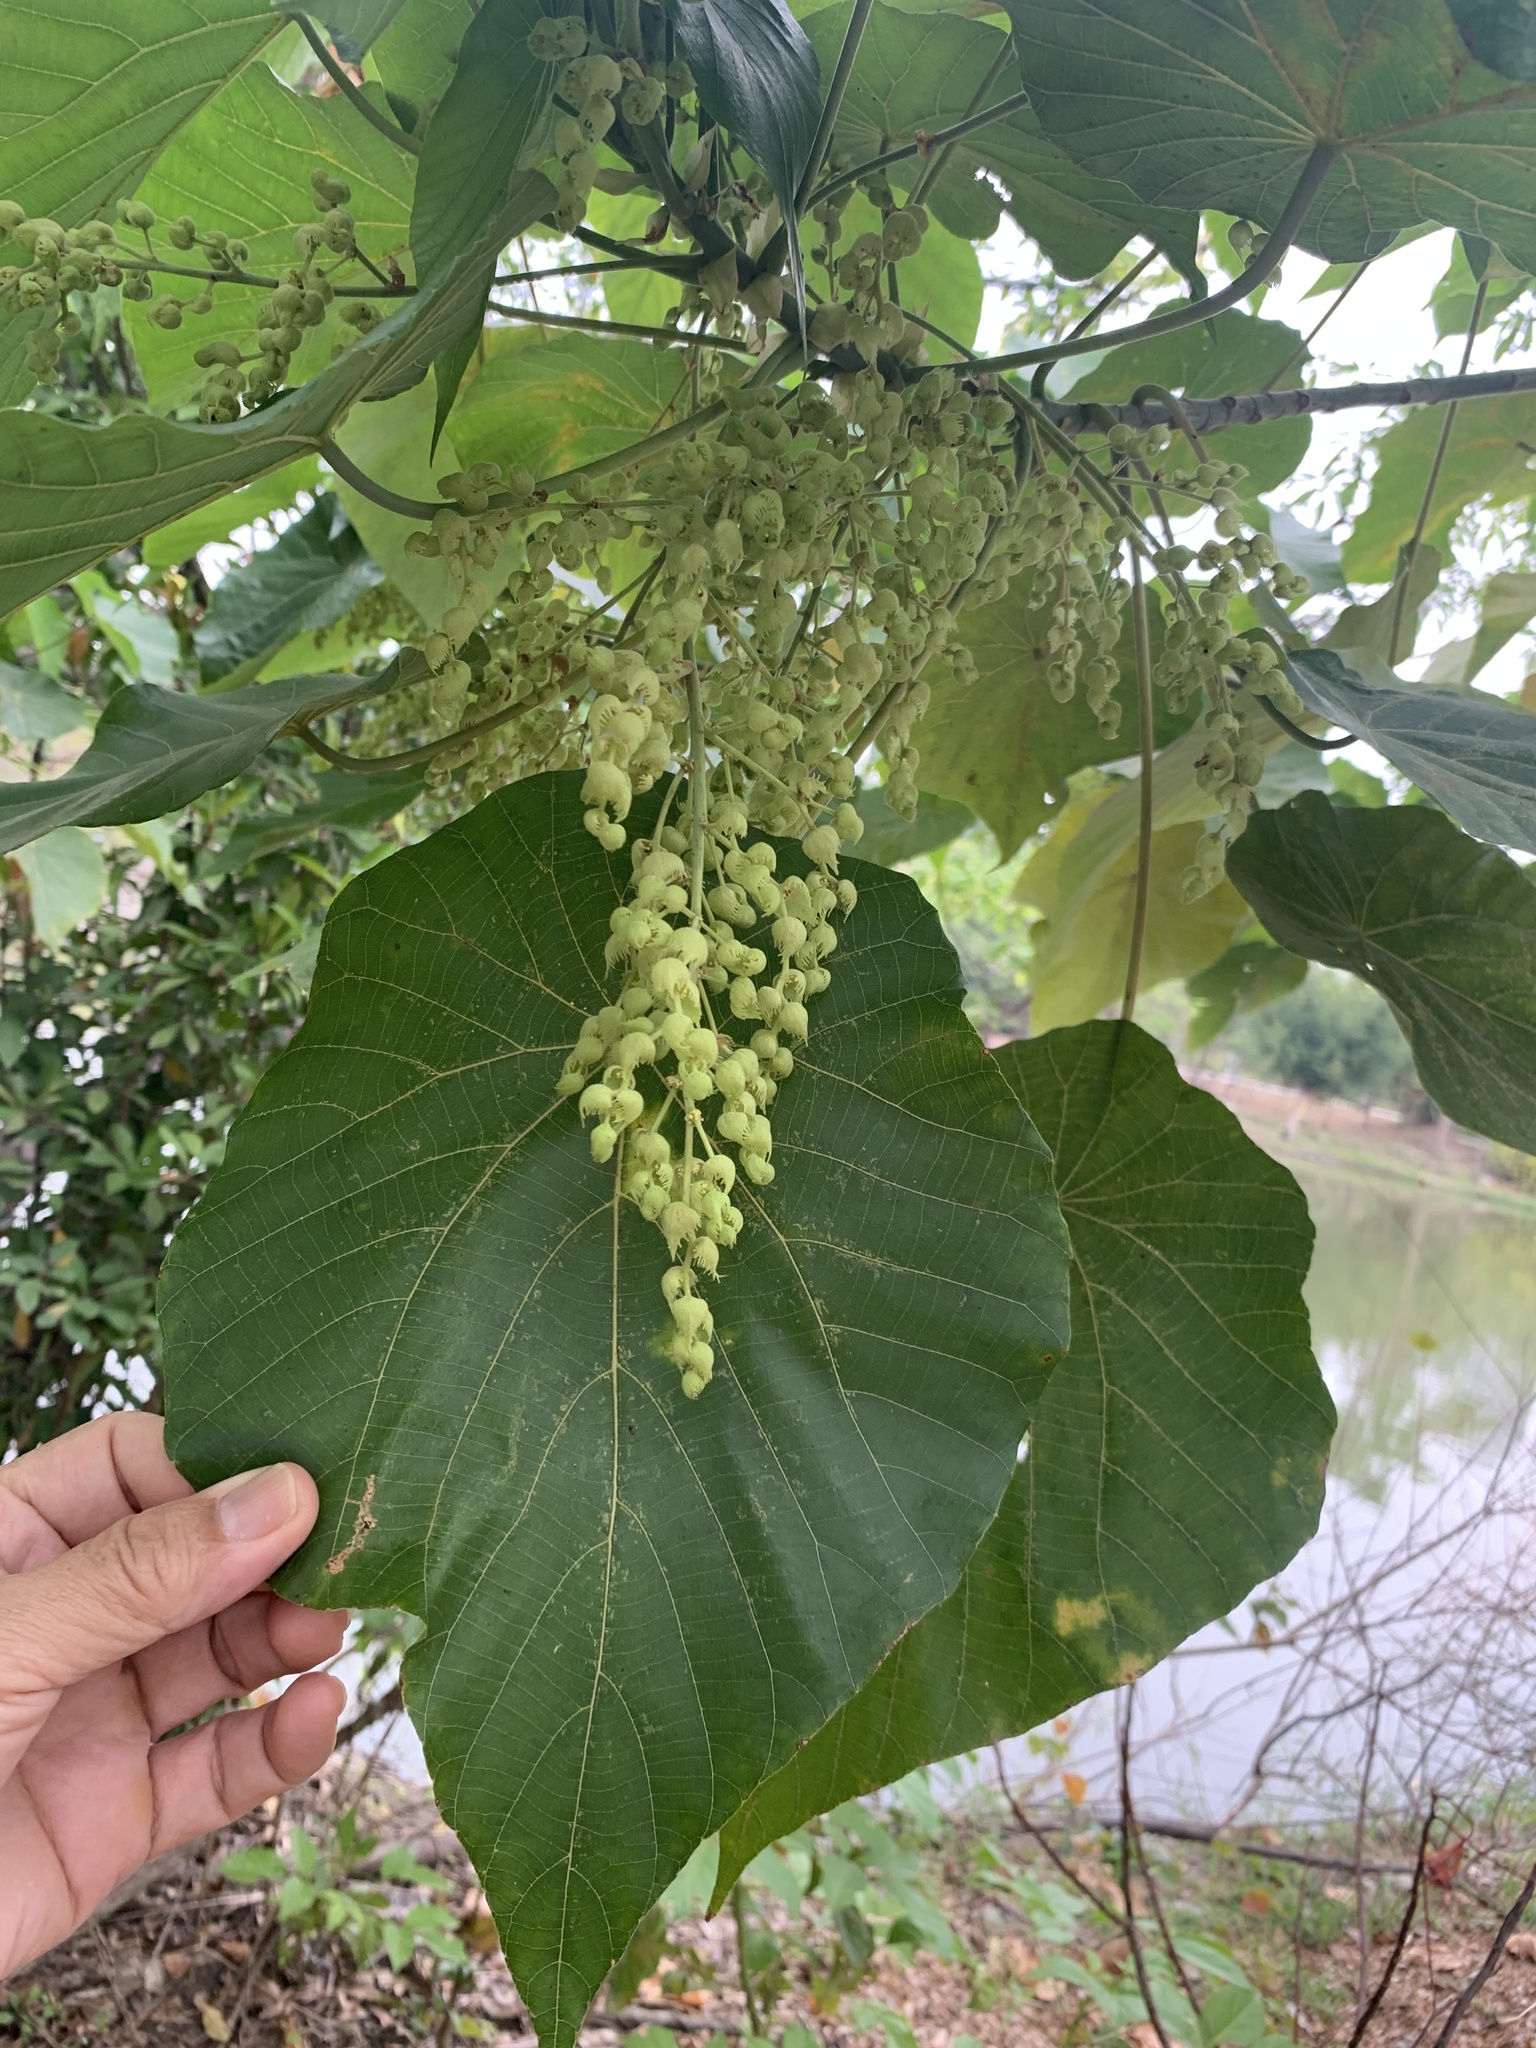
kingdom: Plantae
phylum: Tracheophyta
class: Magnoliopsida
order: Malpighiales
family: Euphorbiaceae
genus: Macaranga
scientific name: Macaranga tanarius
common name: Parasol leaf tree
